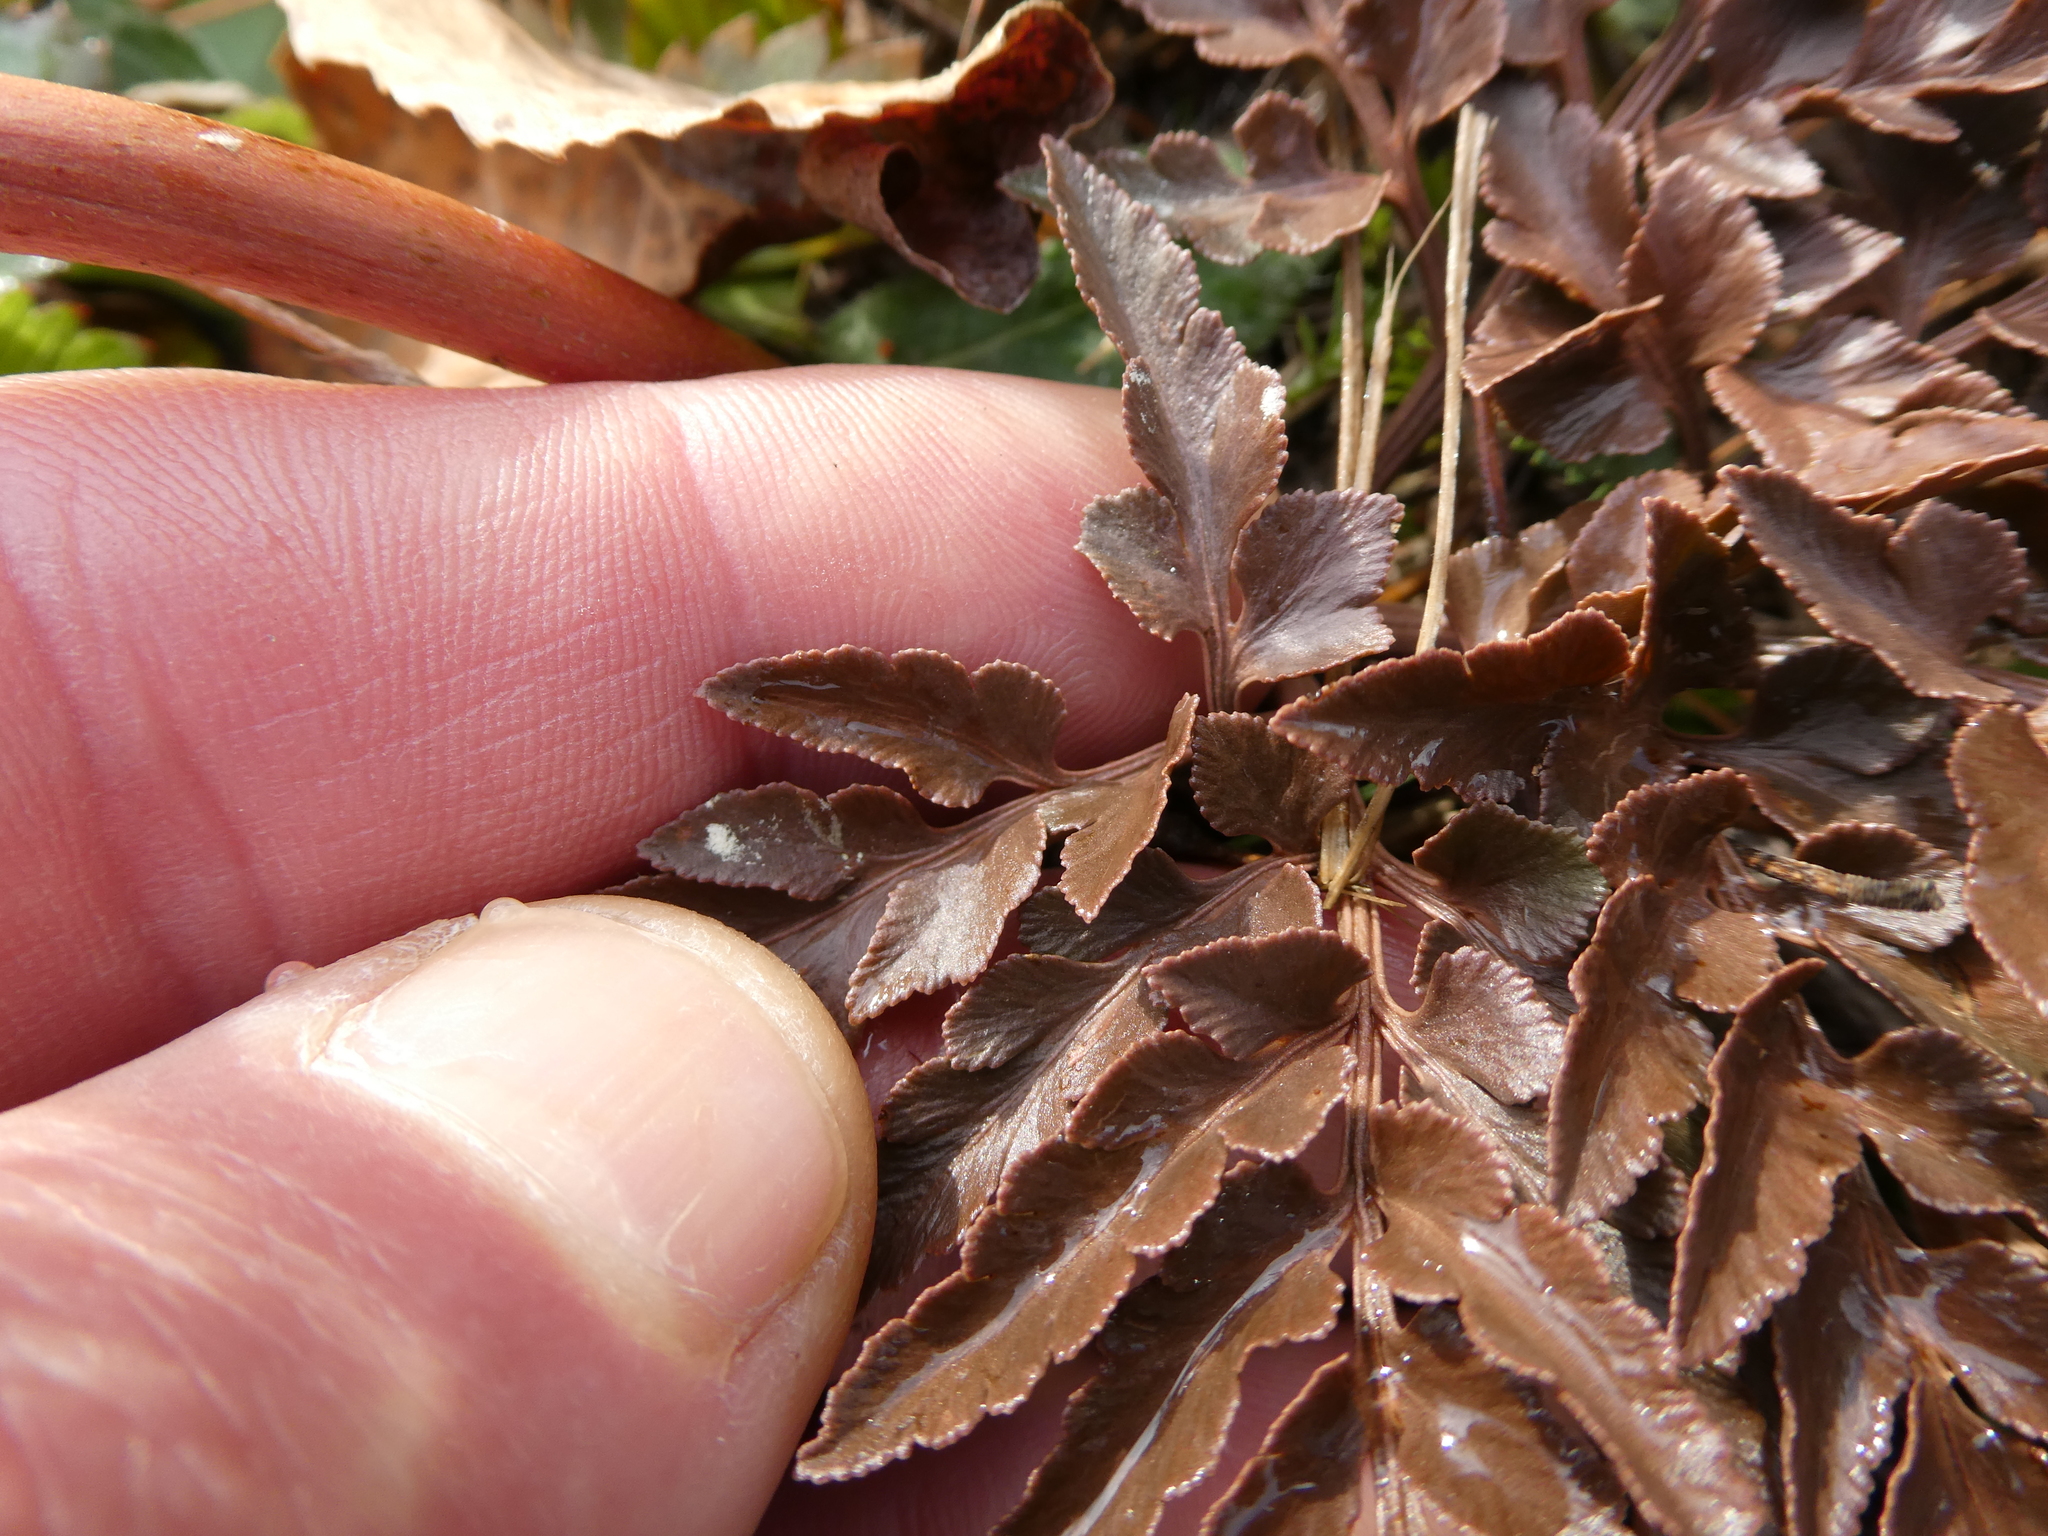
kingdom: Plantae
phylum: Tracheophyta
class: Polypodiopsida
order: Ophioglossales
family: Ophioglossaceae
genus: Sceptridium
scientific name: Sceptridium dissectum
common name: Cut-leaved grapefern
